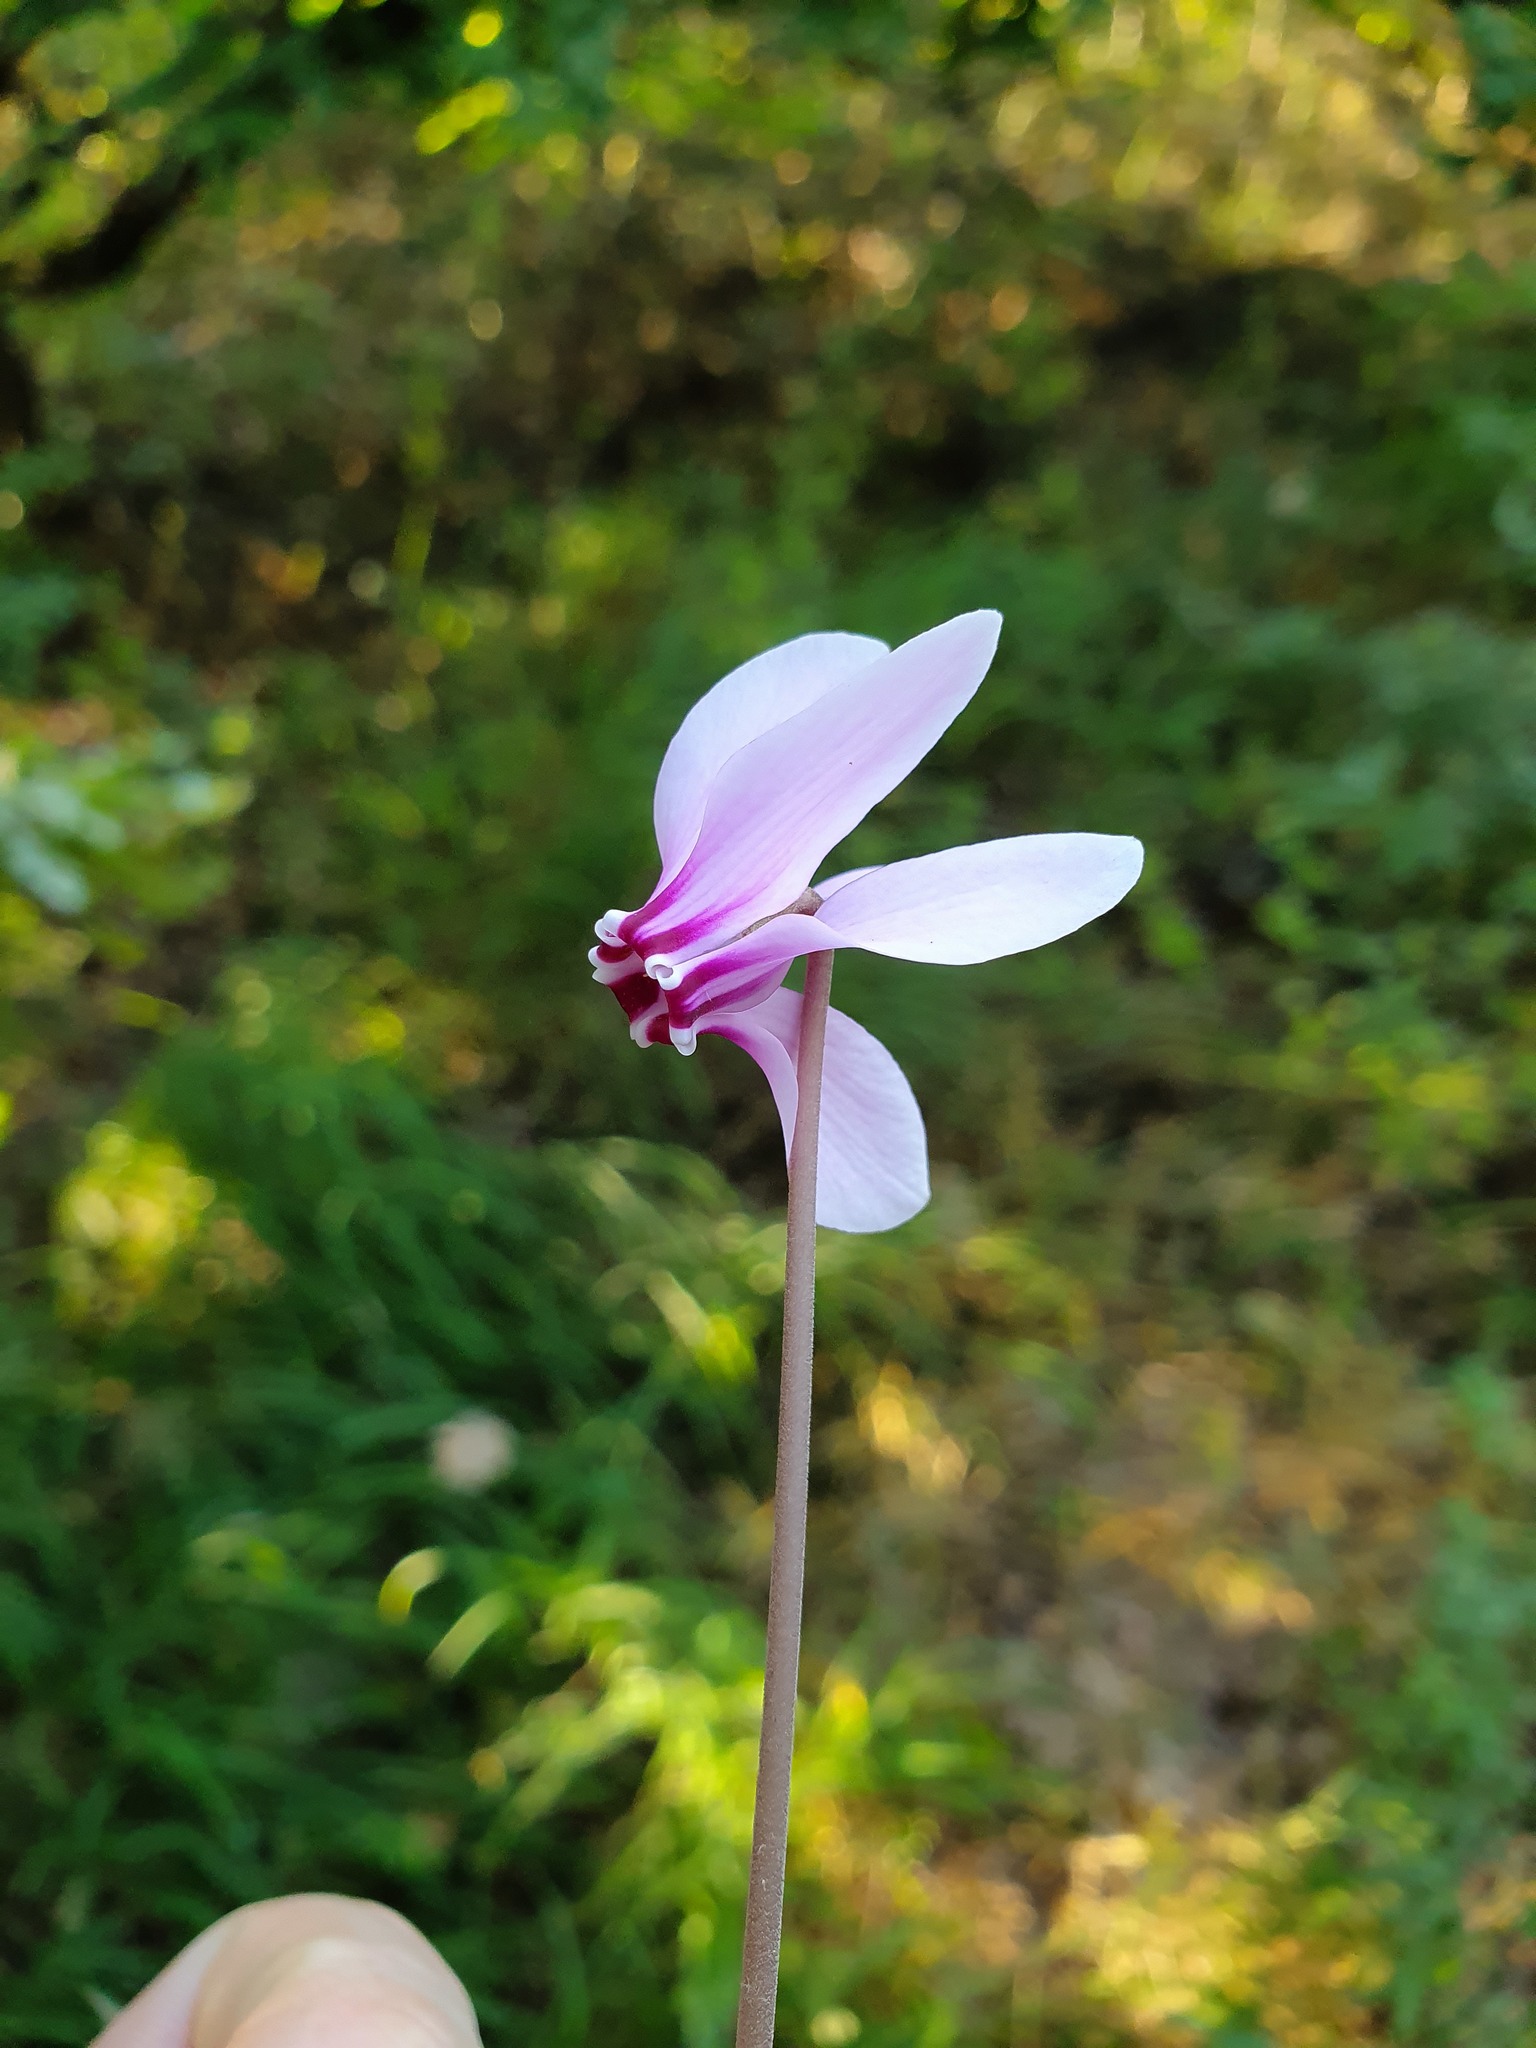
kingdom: Plantae
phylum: Tracheophyta
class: Magnoliopsida
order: Ericales
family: Primulaceae
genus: Cyclamen
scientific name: Cyclamen hederifolium
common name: Sowbread
